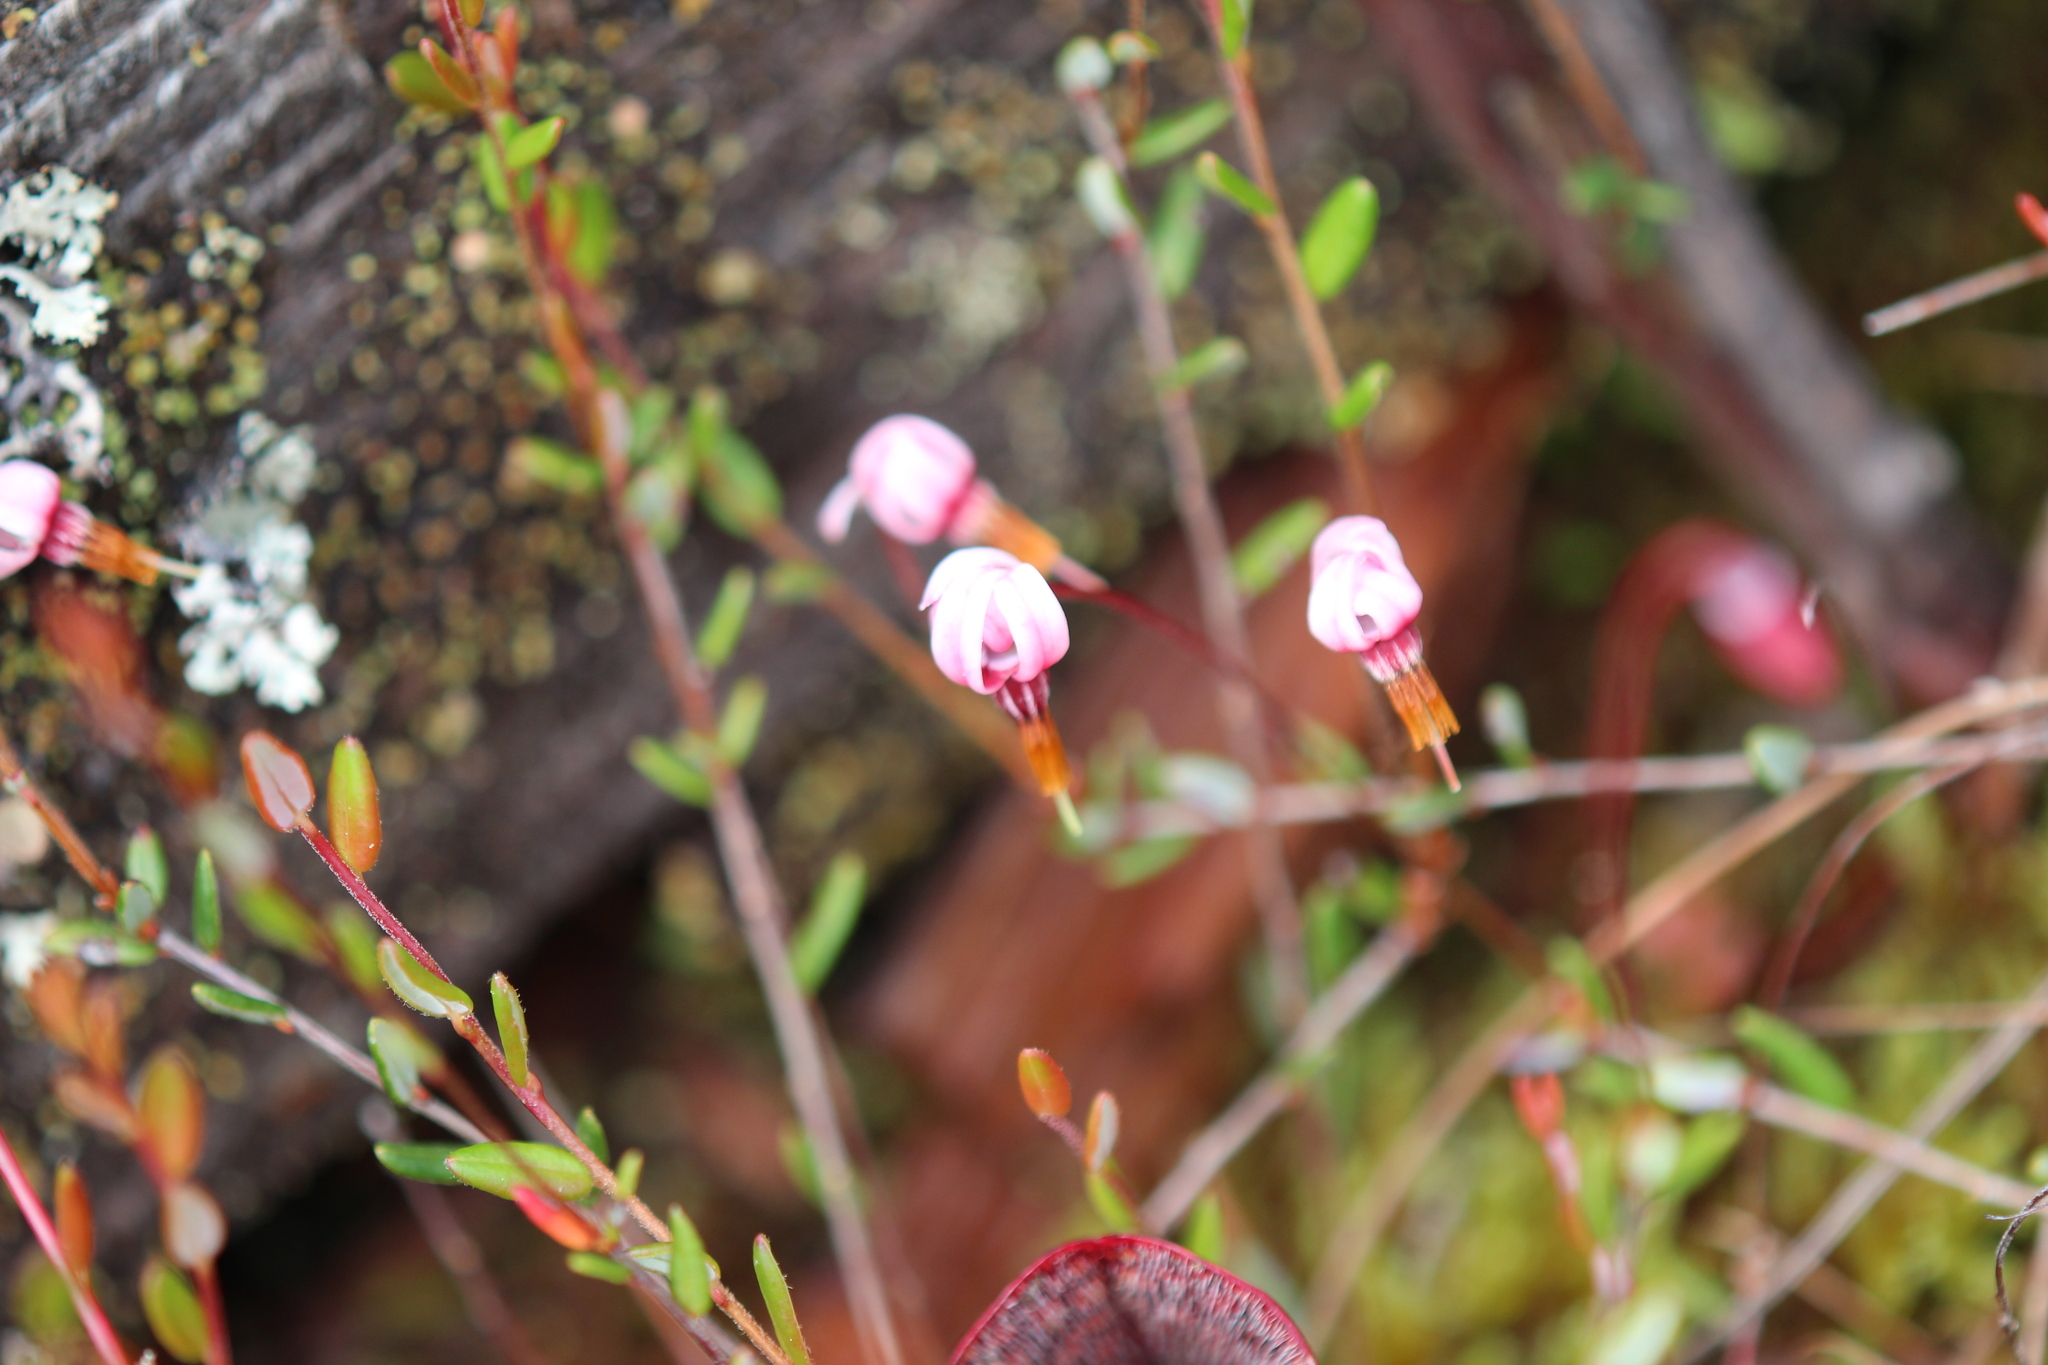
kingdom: Plantae
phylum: Tracheophyta
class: Magnoliopsida
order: Ericales
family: Ericaceae
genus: Vaccinium
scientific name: Vaccinium oxycoccos
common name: Cranberry
